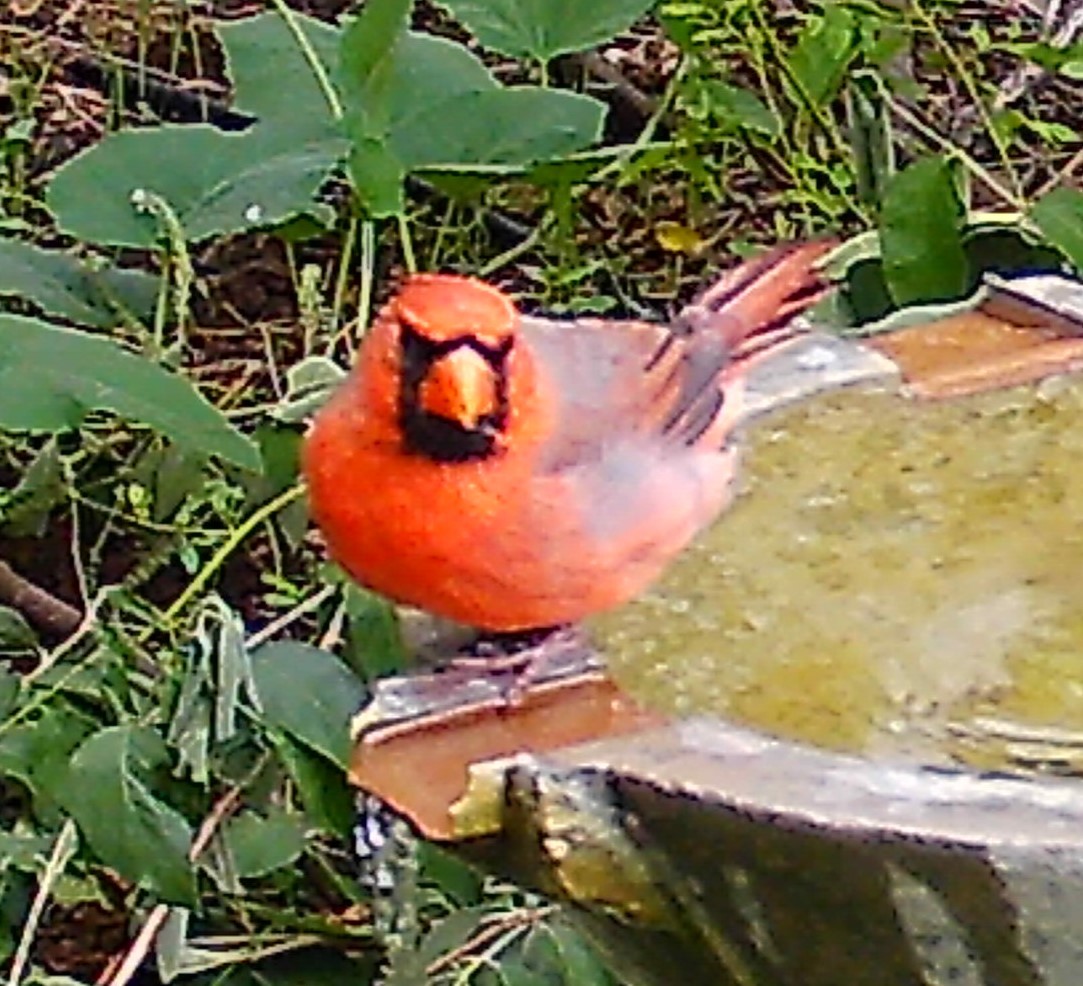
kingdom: Animalia
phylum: Chordata
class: Aves
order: Passeriformes
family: Cardinalidae
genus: Cardinalis
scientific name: Cardinalis cardinalis
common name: Northern cardinal
